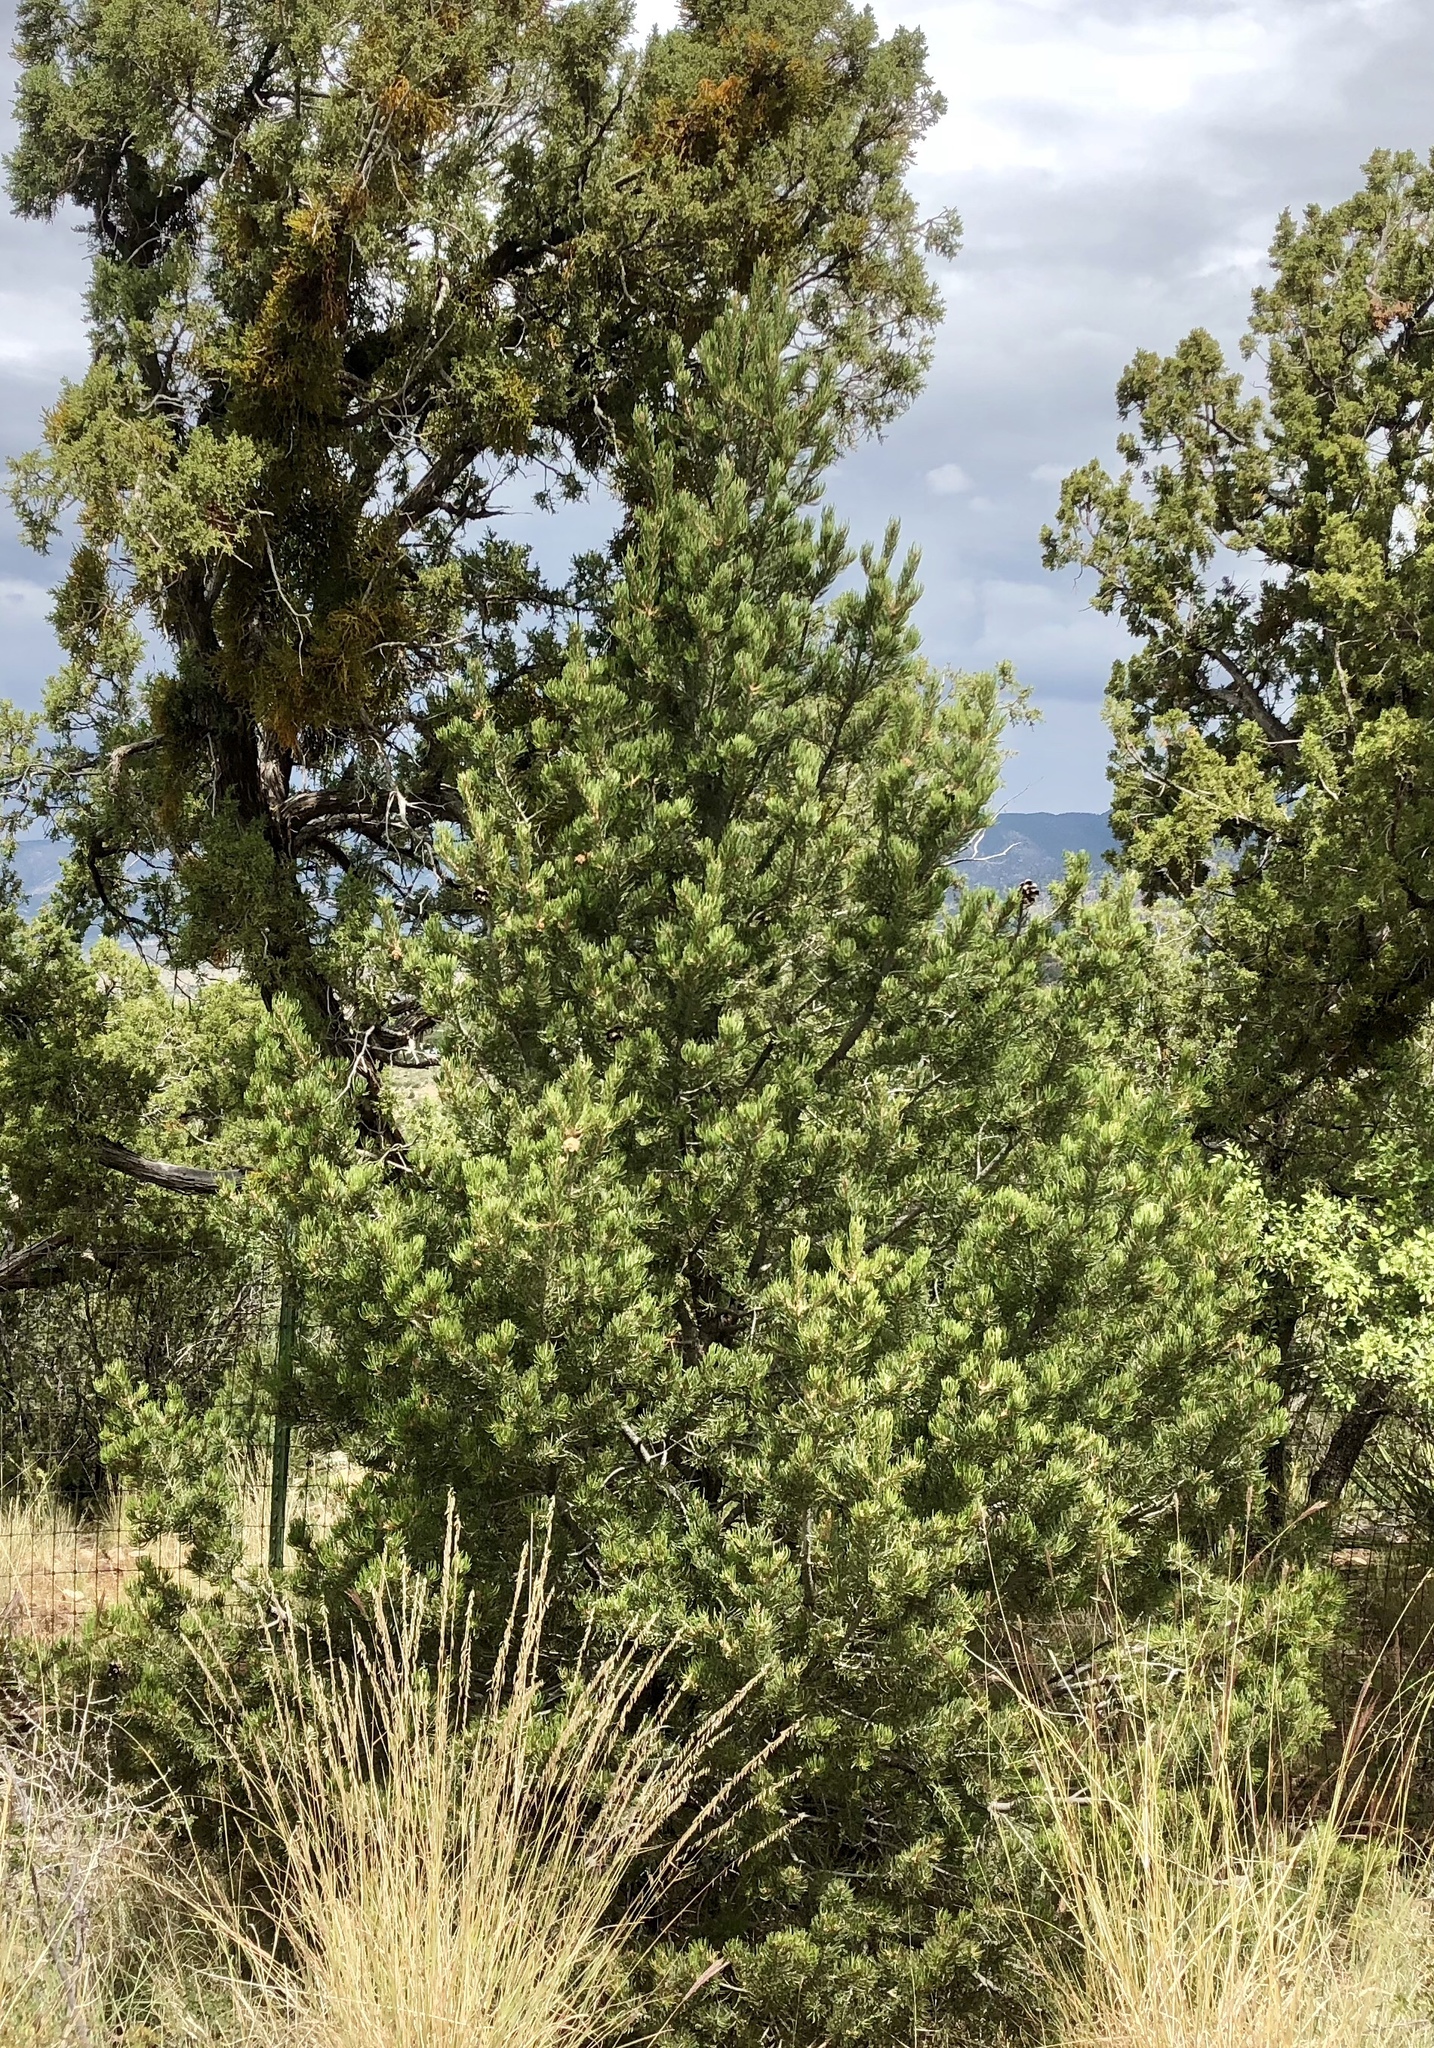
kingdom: Plantae
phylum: Tracheophyta
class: Pinopsida
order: Pinales
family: Pinaceae
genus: Pinus
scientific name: Pinus edulis
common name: Colorado pinyon
